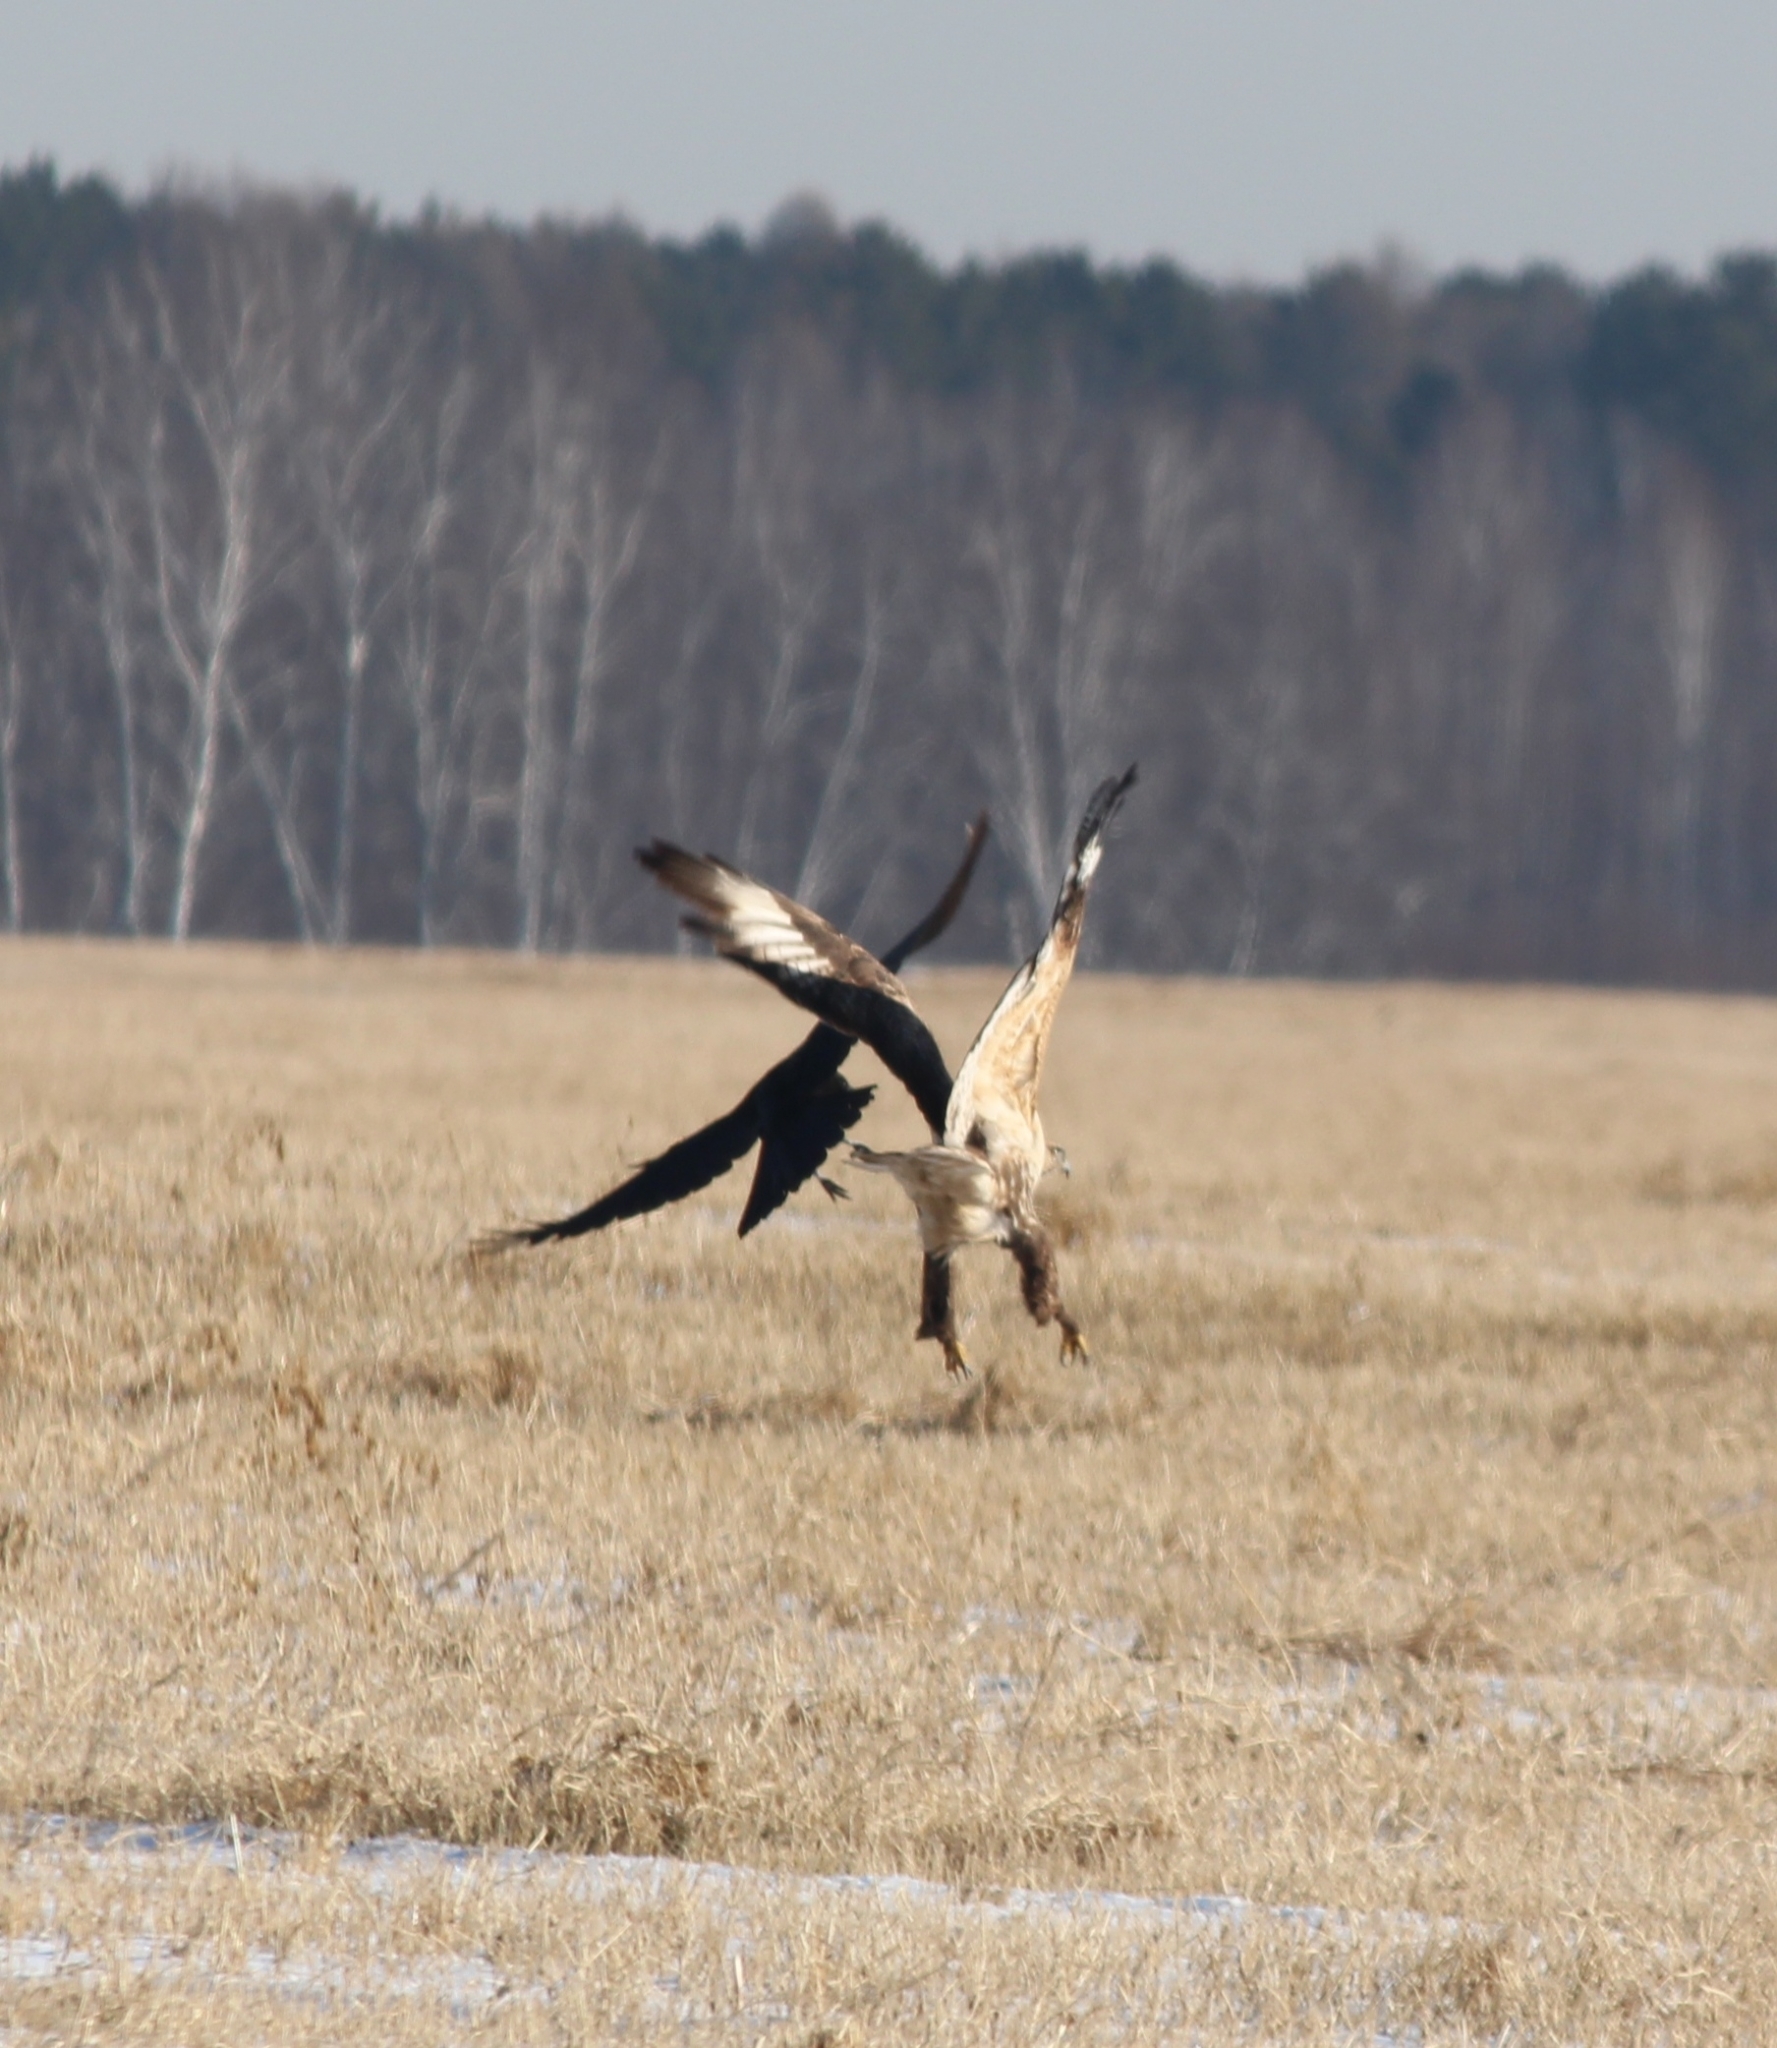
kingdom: Animalia
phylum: Chordata
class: Aves
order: Accipitriformes
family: Accipitridae
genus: Buteo
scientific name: Buteo hemilasius
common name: Upland buzzard
